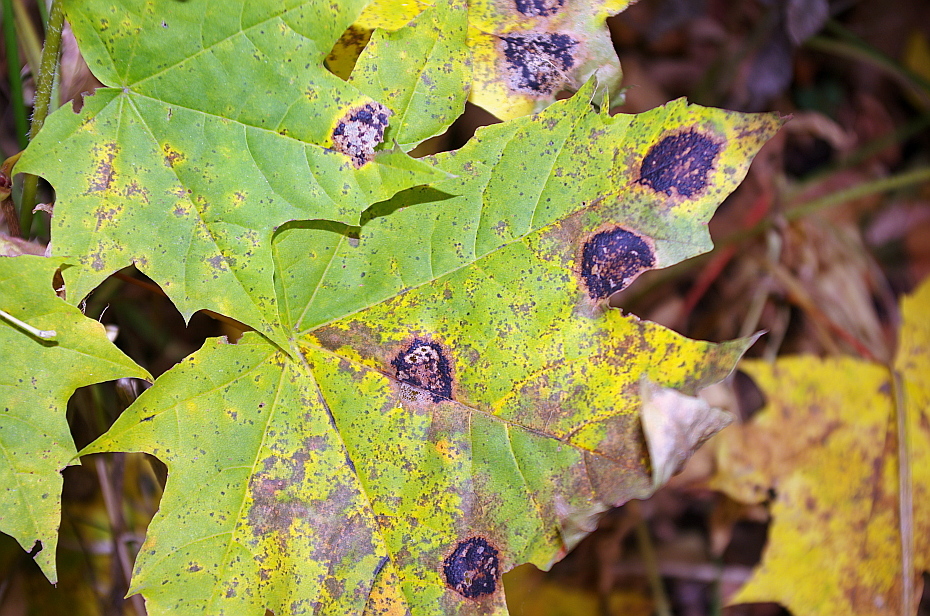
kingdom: Fungi
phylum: Ascomycota
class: Leotiomycetes
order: Rhytismatales
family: Rhytismataceae
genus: Rhytisma
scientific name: Rhytisma acerinum
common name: European tar spot
